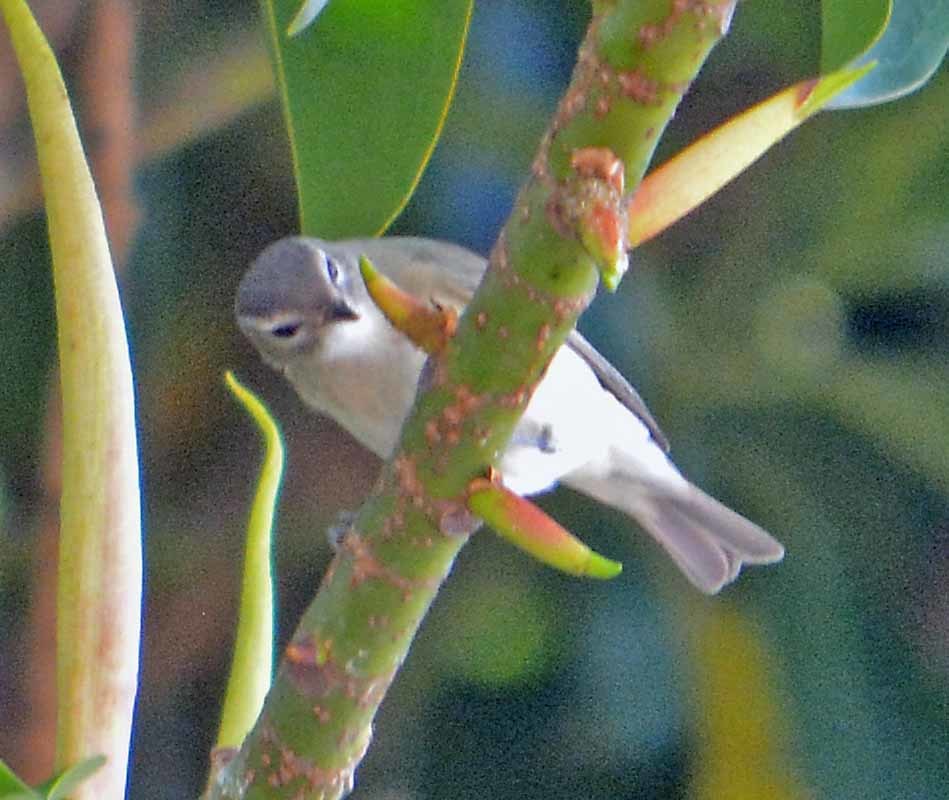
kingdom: Animalia
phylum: Chordata
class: Aves
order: Passeriformes
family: Vireonidae
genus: Vireo
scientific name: Vireo gilvus
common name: Warbling vireo
